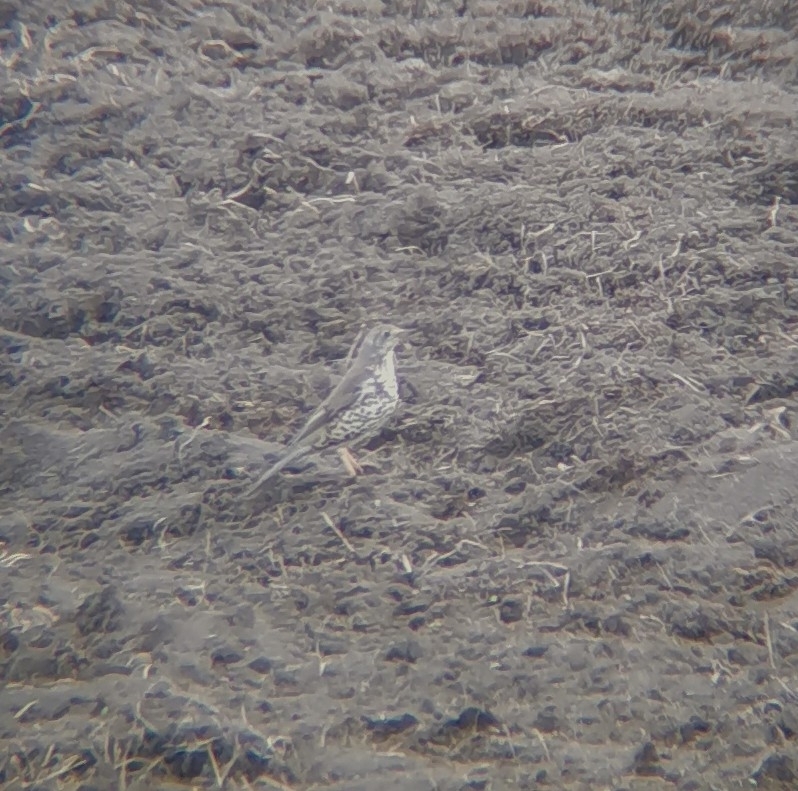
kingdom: Animalia
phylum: Chordata
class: Aves
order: Passeriformes
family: Turdidae
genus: Turdus
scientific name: Turdus viscivorus
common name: Mistle thrush
